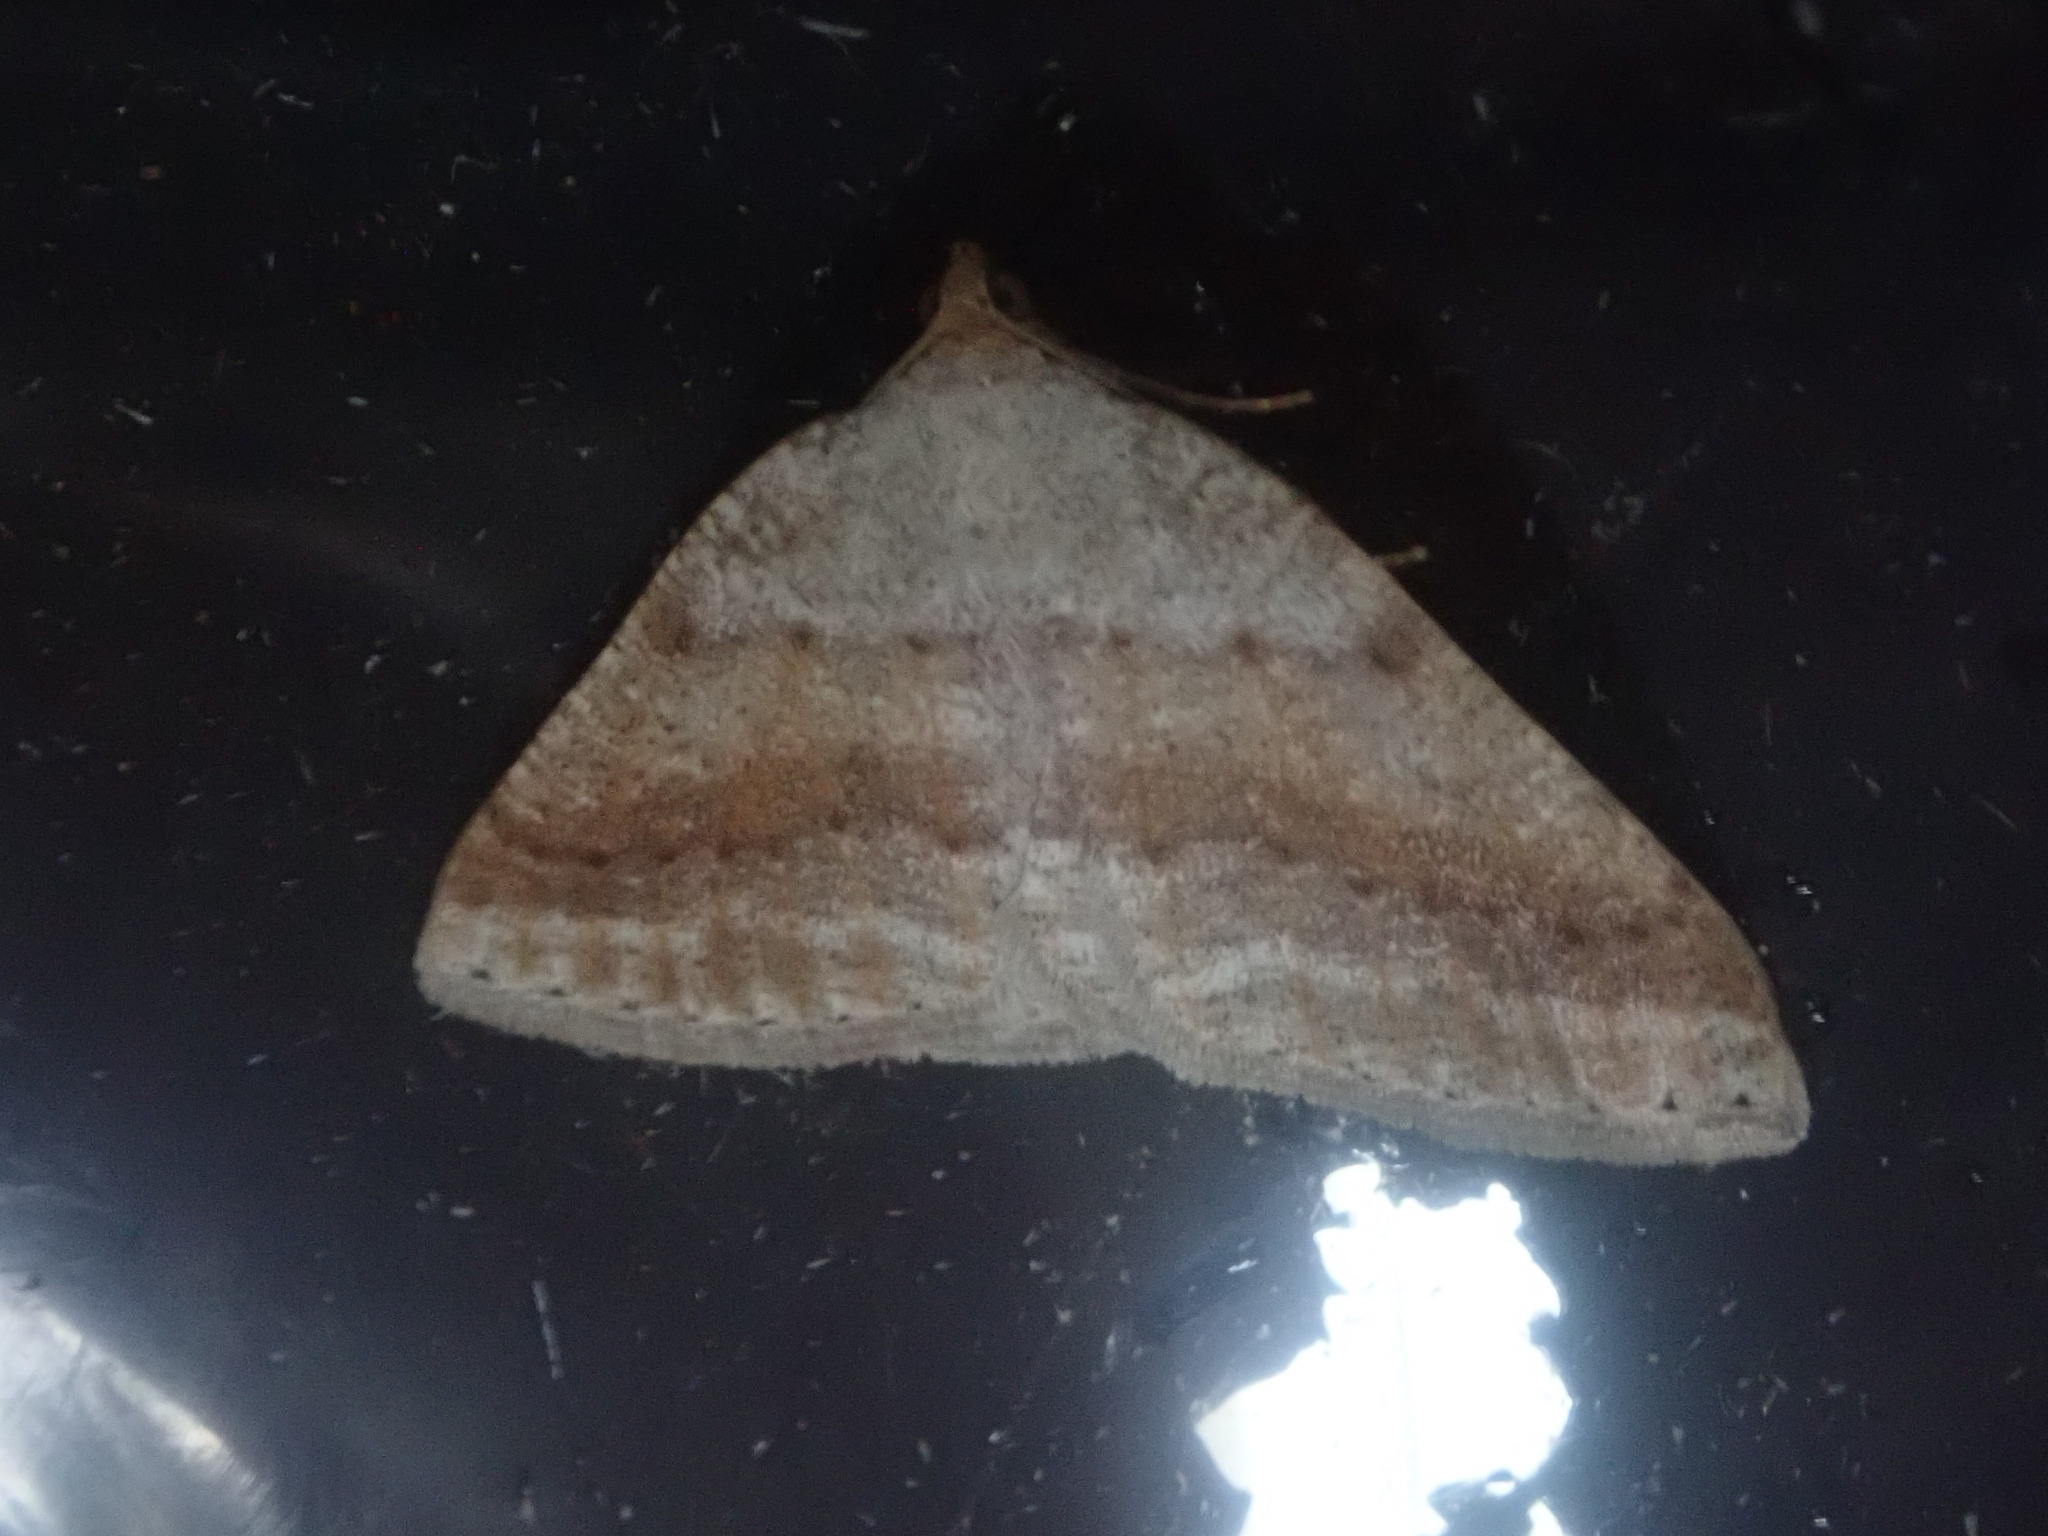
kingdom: Animalia
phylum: Arthropoda
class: Insecta
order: Lepidoptera
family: Geometridae
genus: Tacparia
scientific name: Tacparia detersata
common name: Pale alder moth
